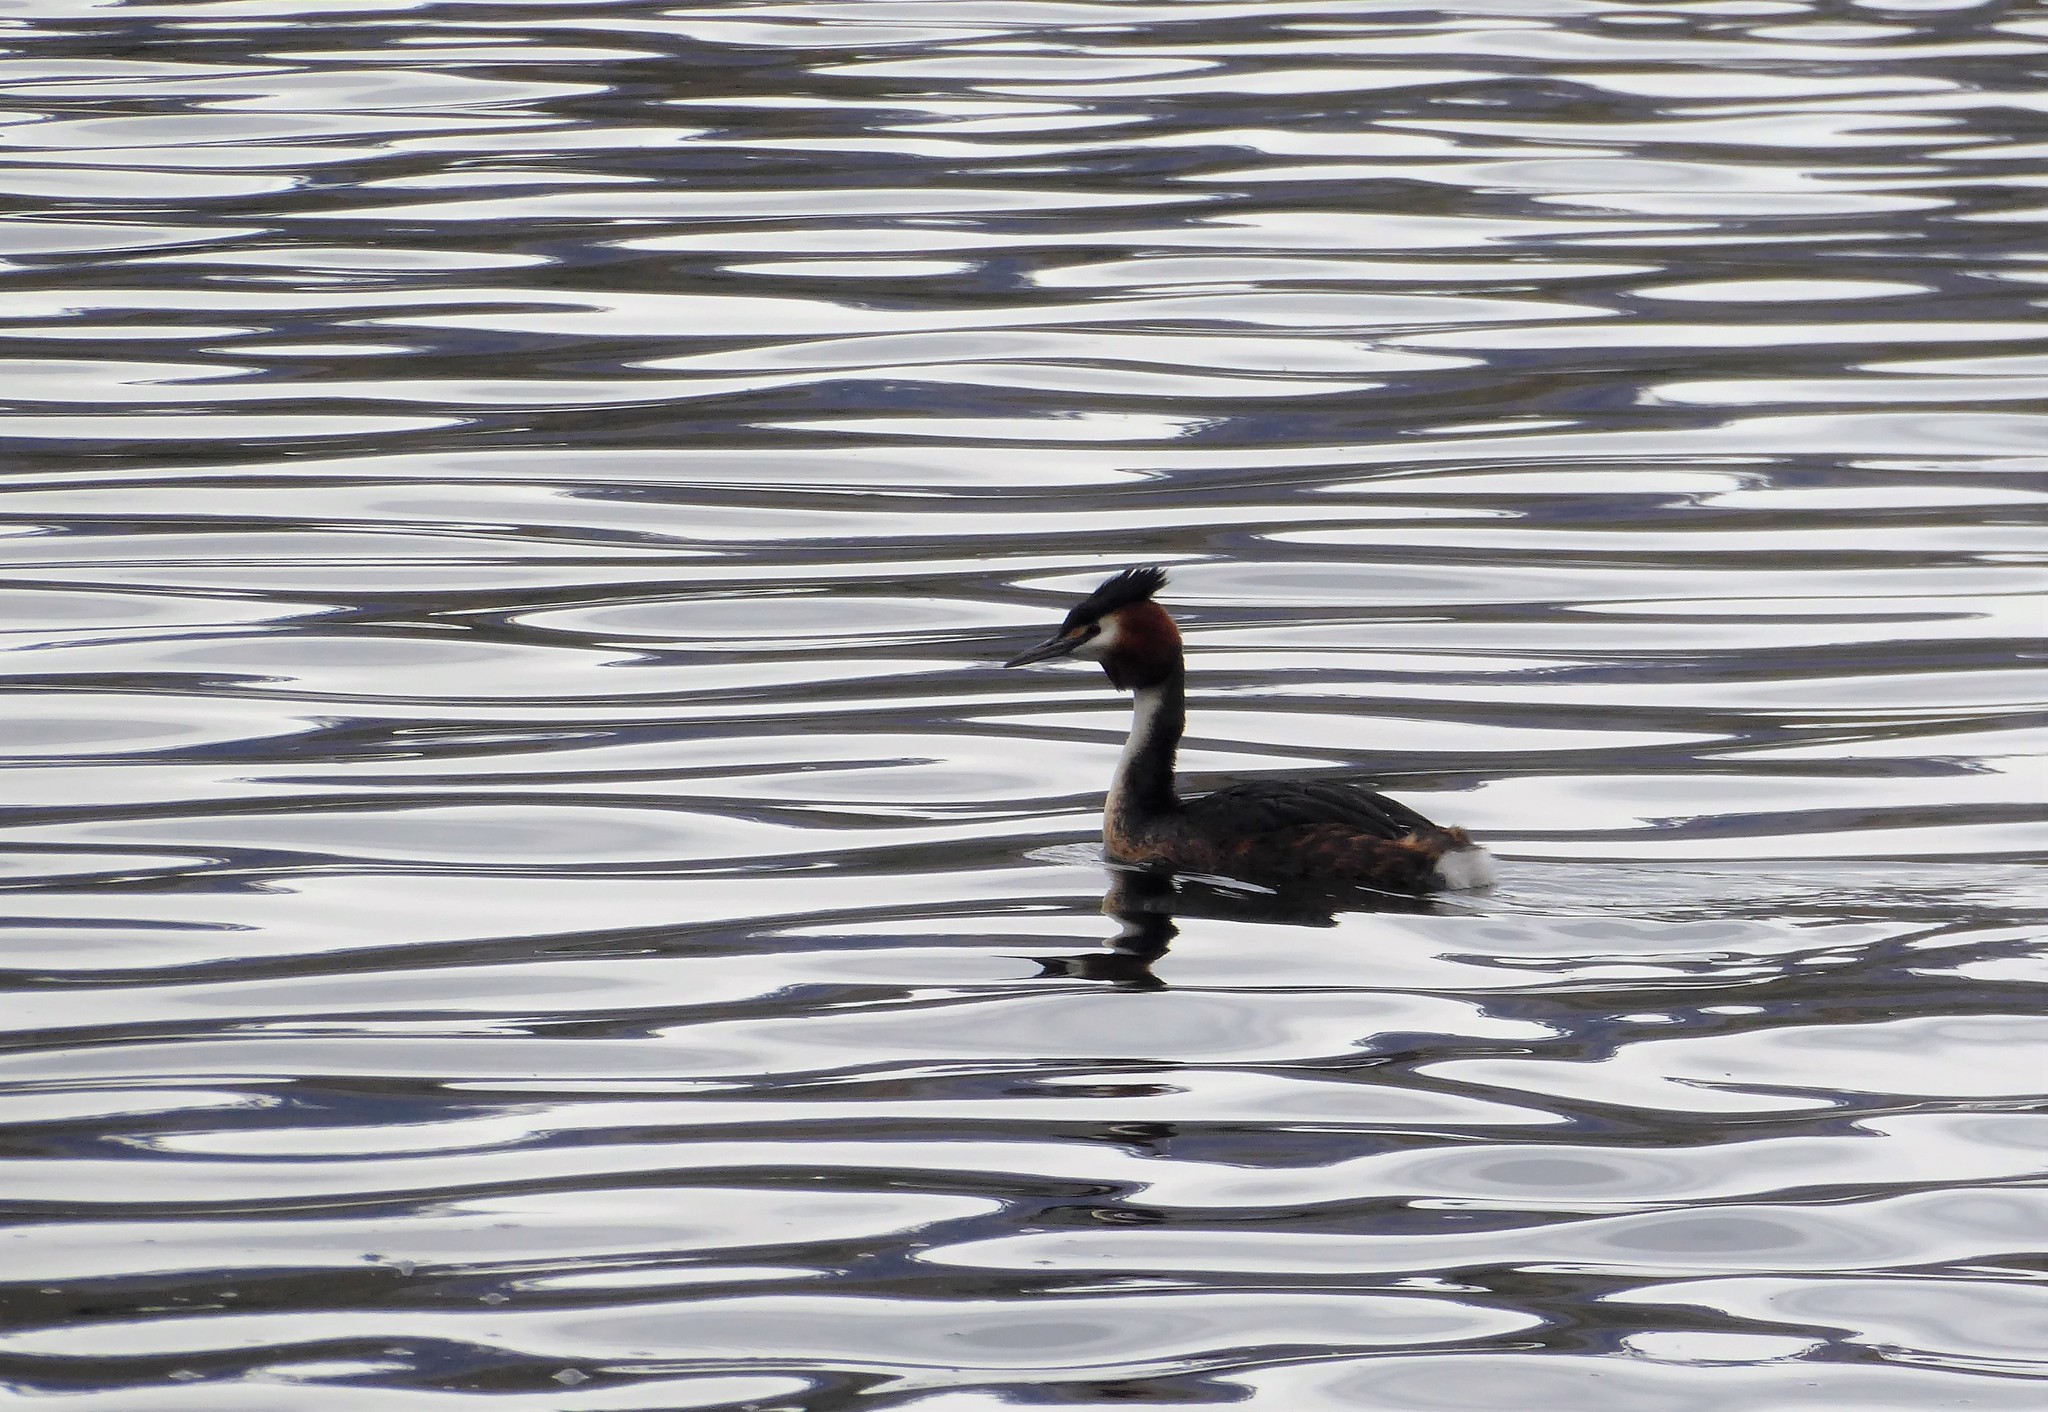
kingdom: Animalia
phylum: Chordata
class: Aves
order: Podicipediformes
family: Podicipedidae
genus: Podiceps
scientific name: Podiceps cristatus
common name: Great crested grebe
